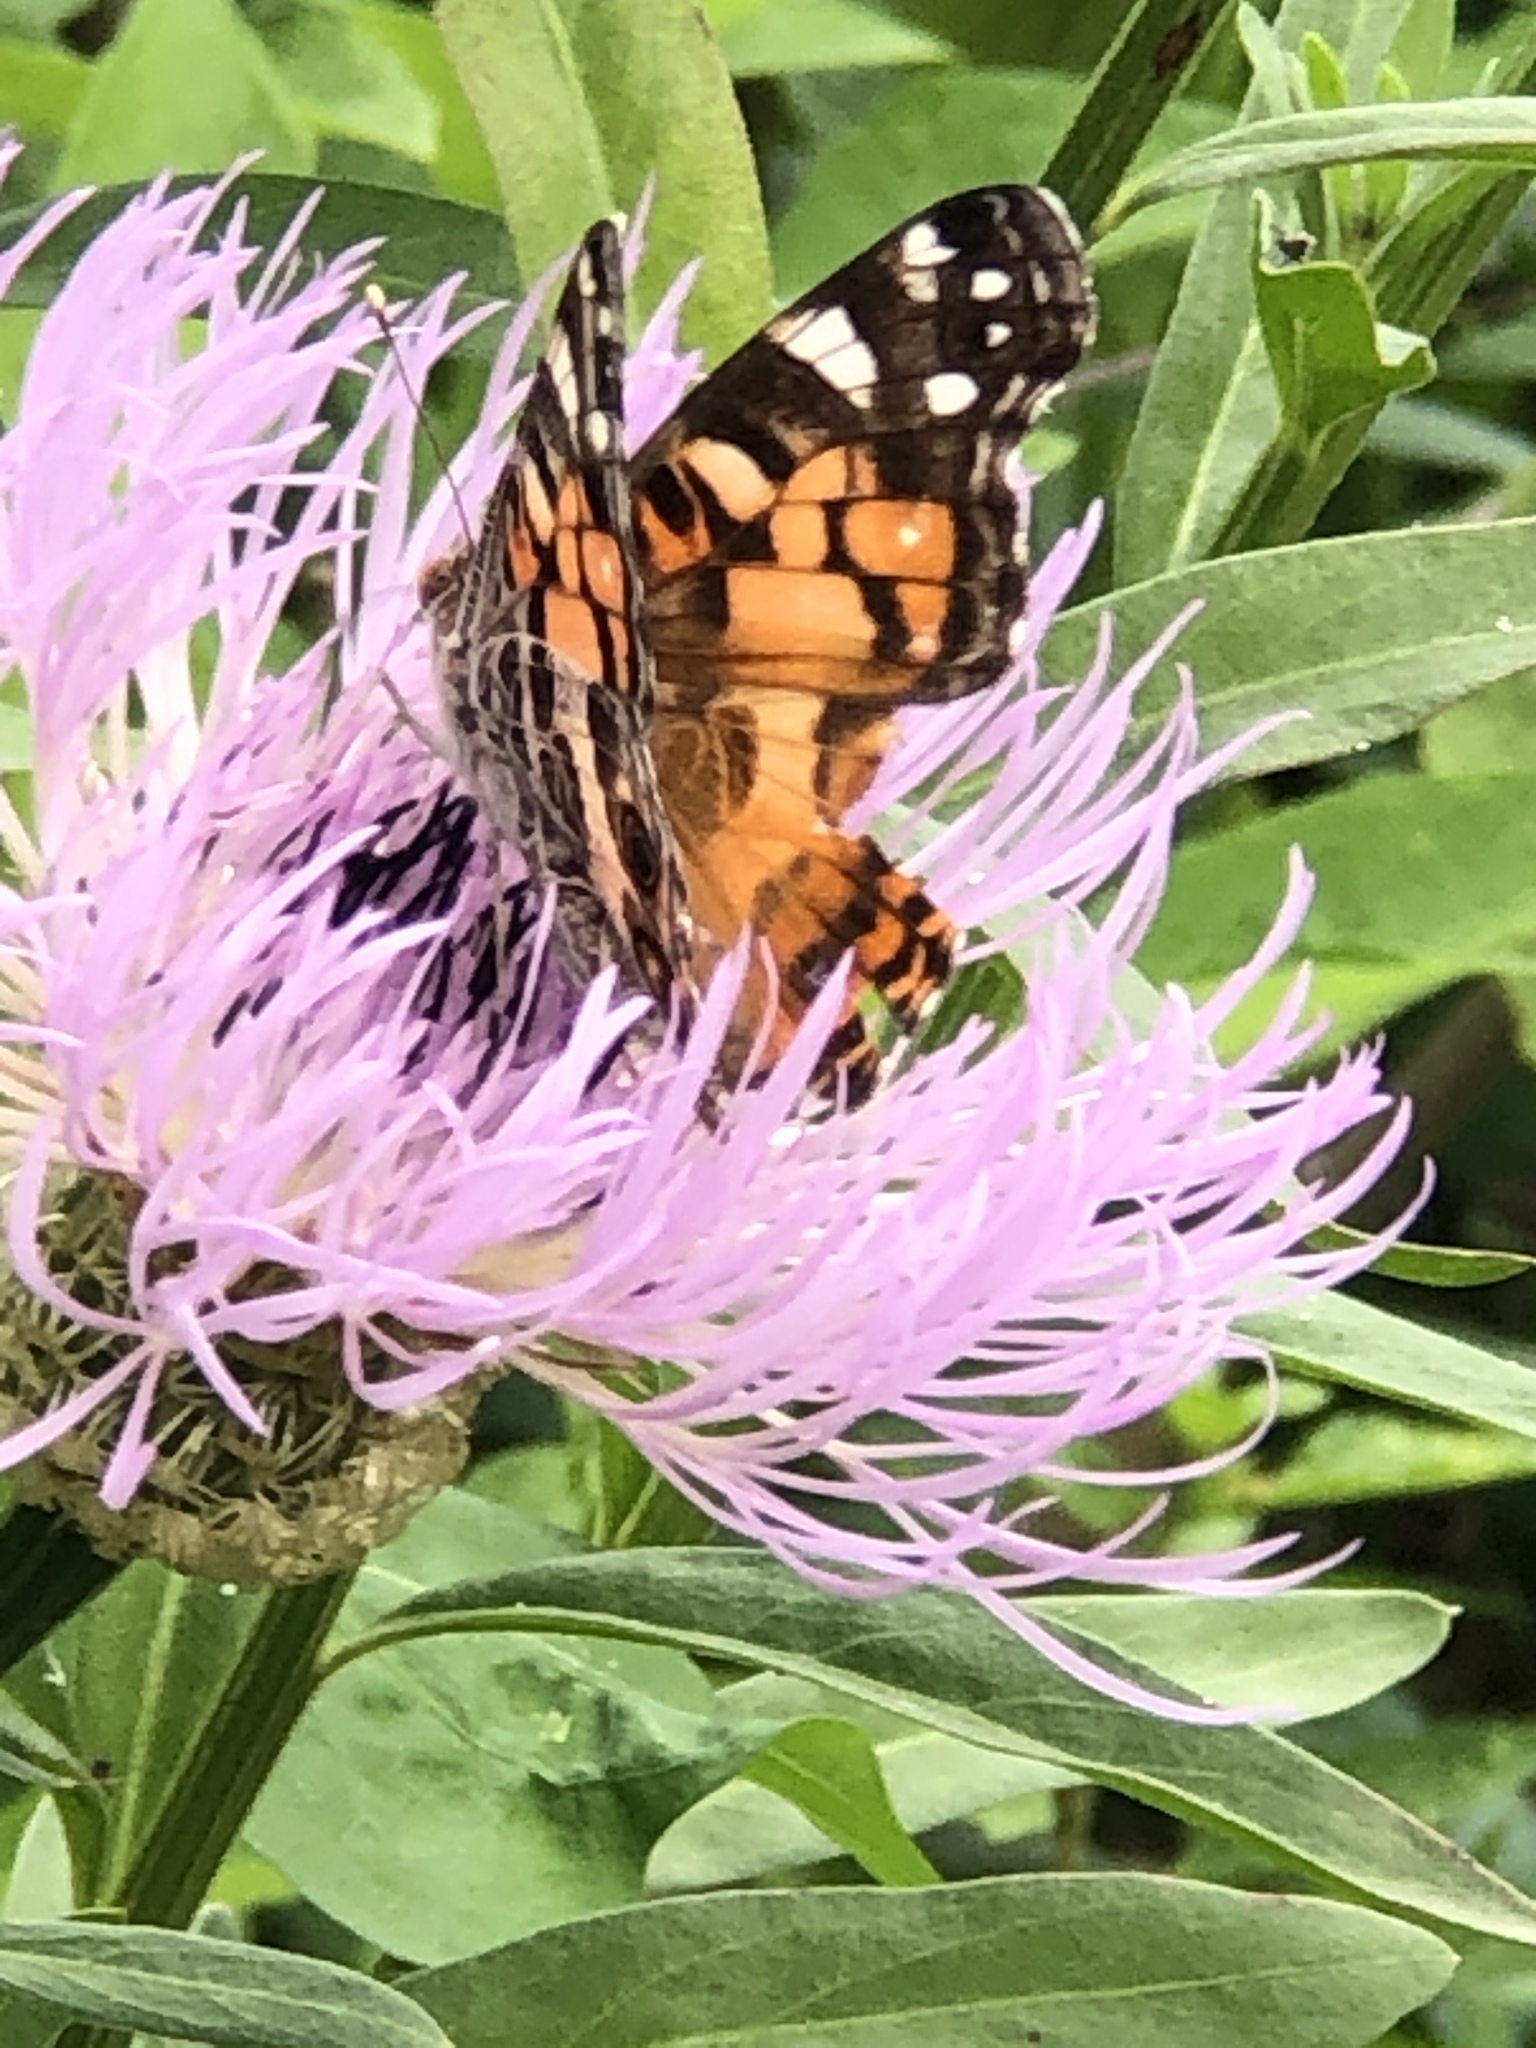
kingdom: Animalia
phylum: Arthropoda
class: Insecta
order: Lepidoptera
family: Nymphalidae
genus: Vanessa
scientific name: Vanessa virginiensis
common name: American lady
